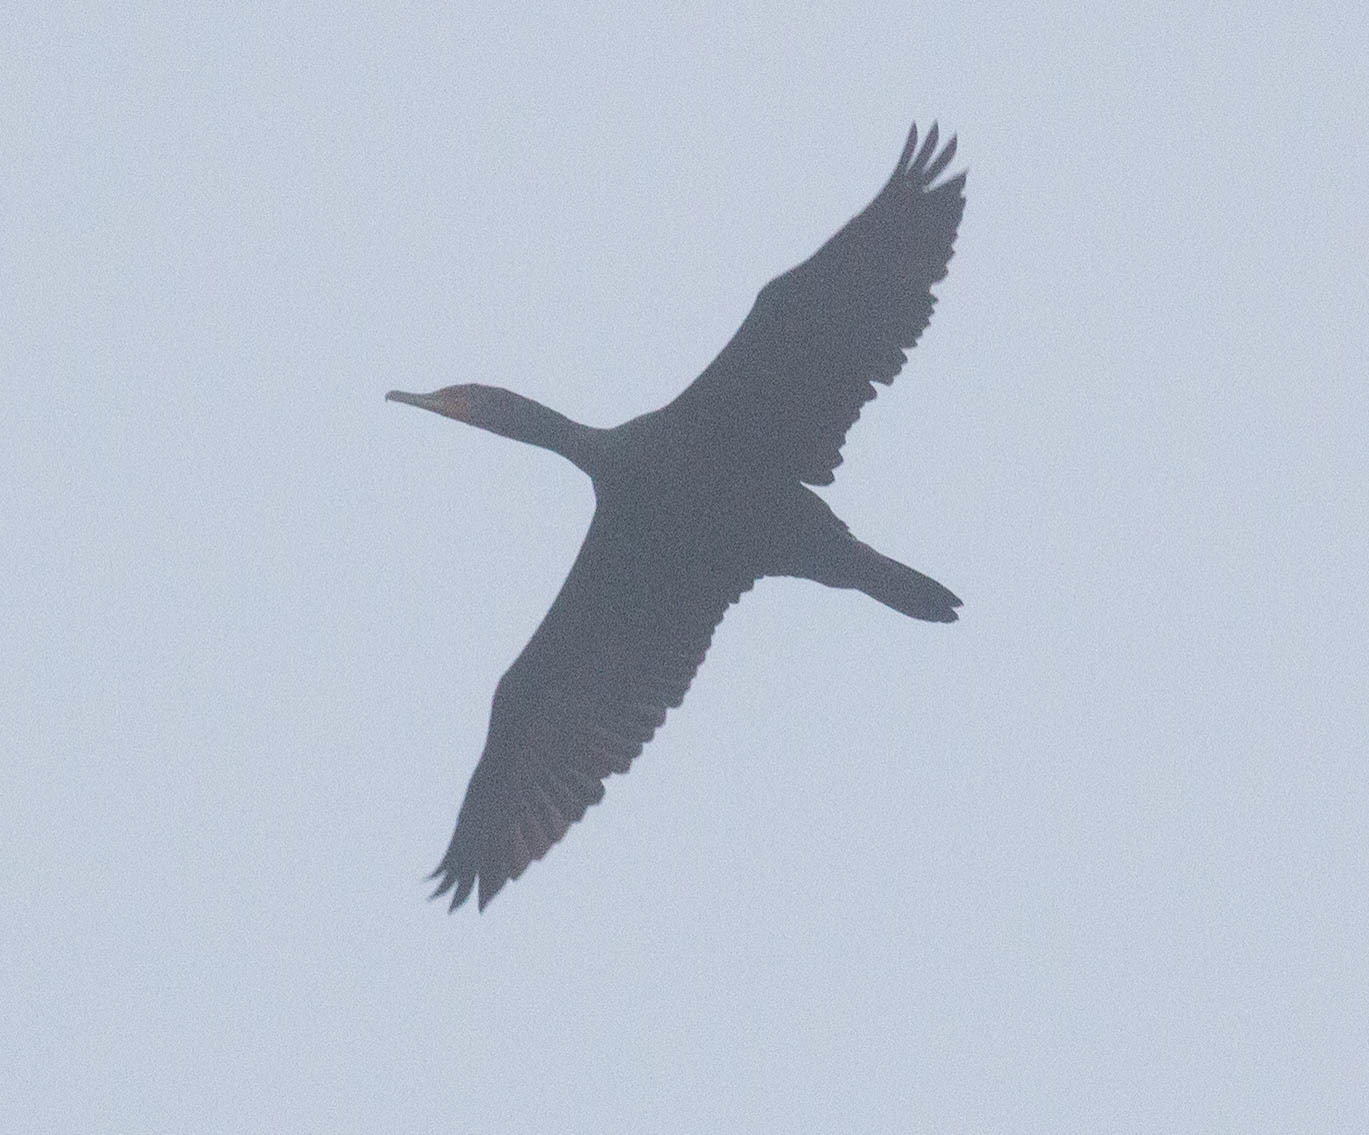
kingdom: Animalia
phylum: Chordata
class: Aves
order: Suliformes
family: Phalacrocoracidae
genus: Phalacrocorax
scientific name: Phalacrocorax auritus
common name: Double-crested cormorant
